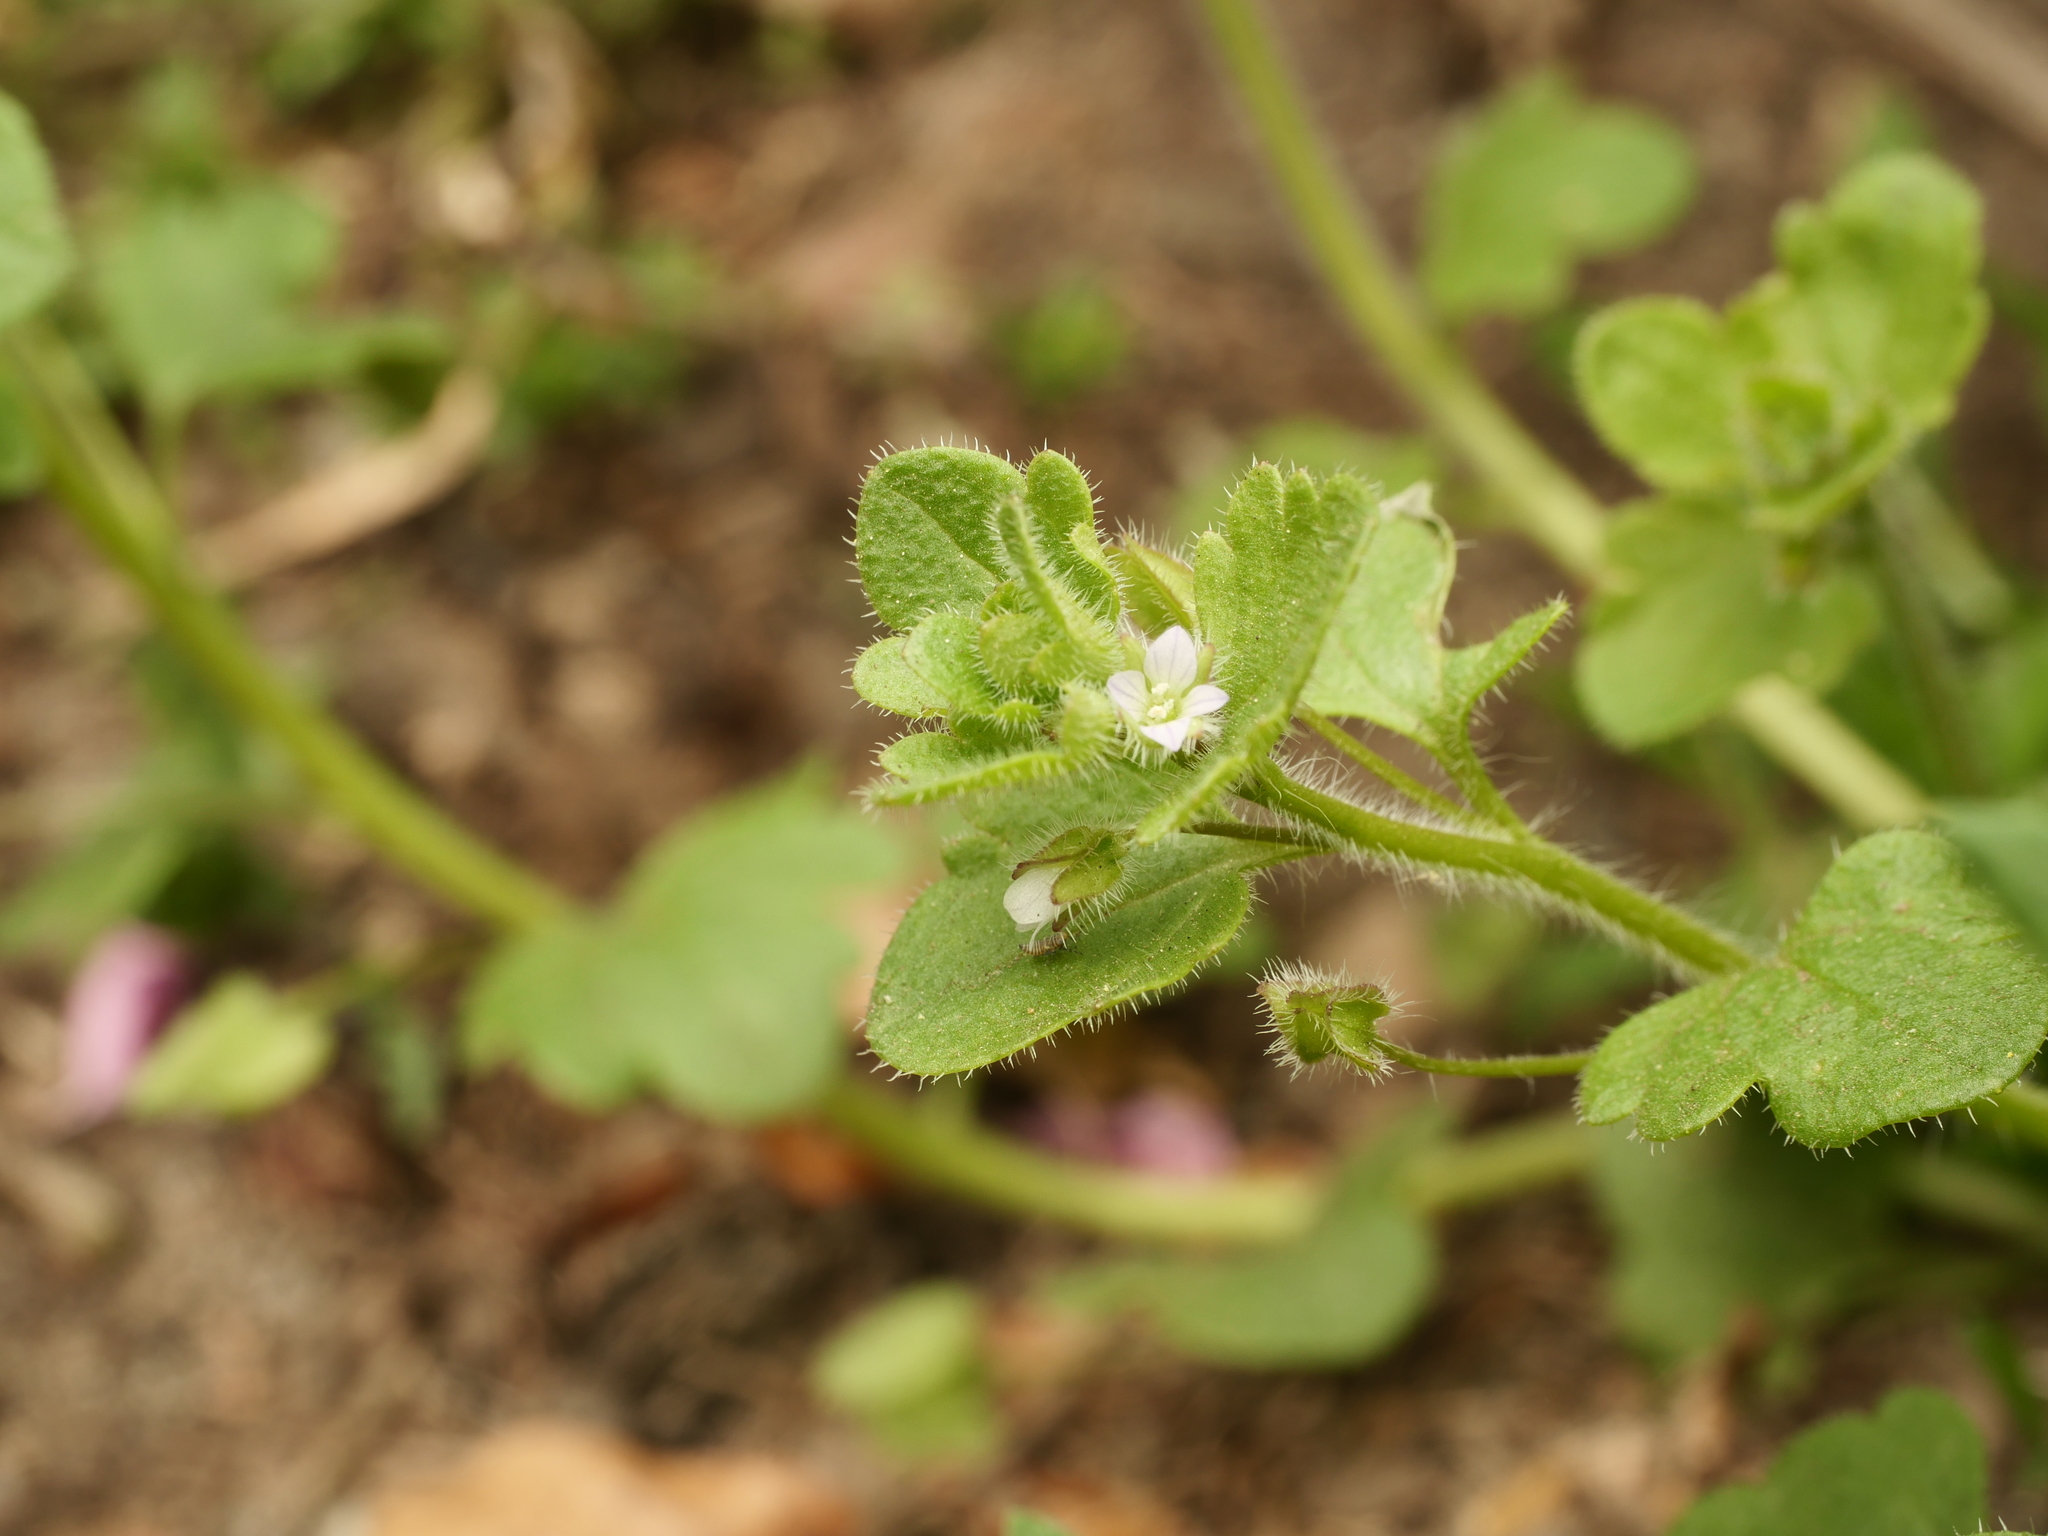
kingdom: Plantae
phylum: Tracheophyta
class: Magnoliopsida
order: Lamiales
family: Plantaginaceae
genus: Veronica
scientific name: Veronica sublobata
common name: False ivy-leaved speedwell
